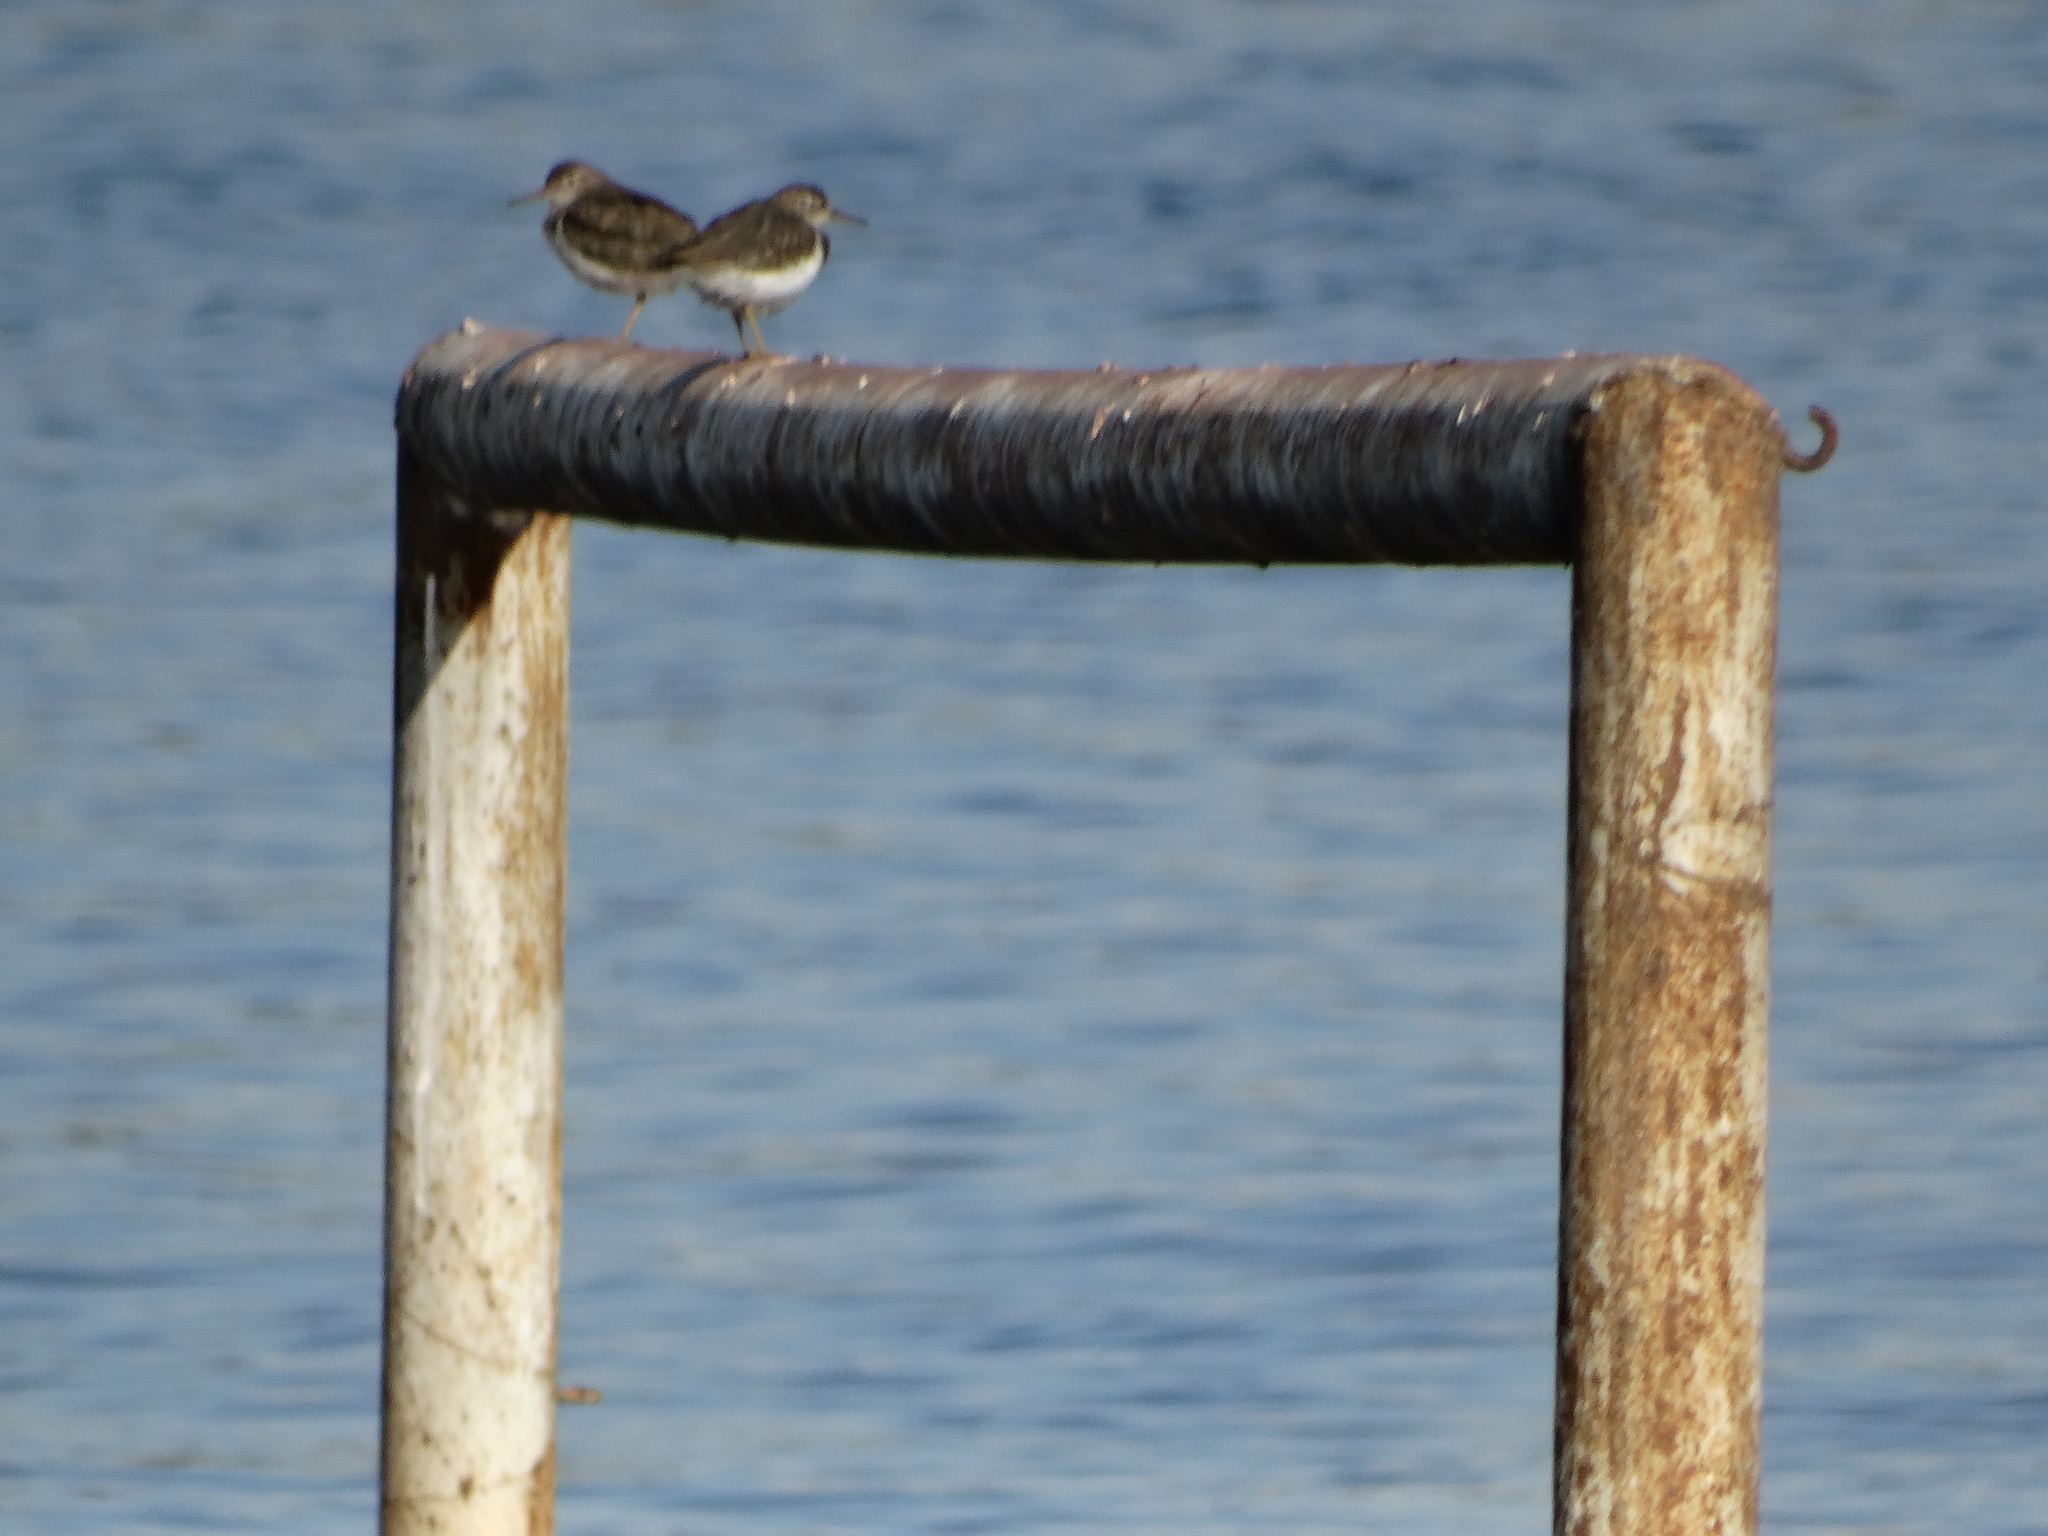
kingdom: Animalia
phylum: Chordata
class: Aves
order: Charadriiformes
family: Scolopacidae
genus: Actitis
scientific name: Actitis macularius
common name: Spotted sandpiper
